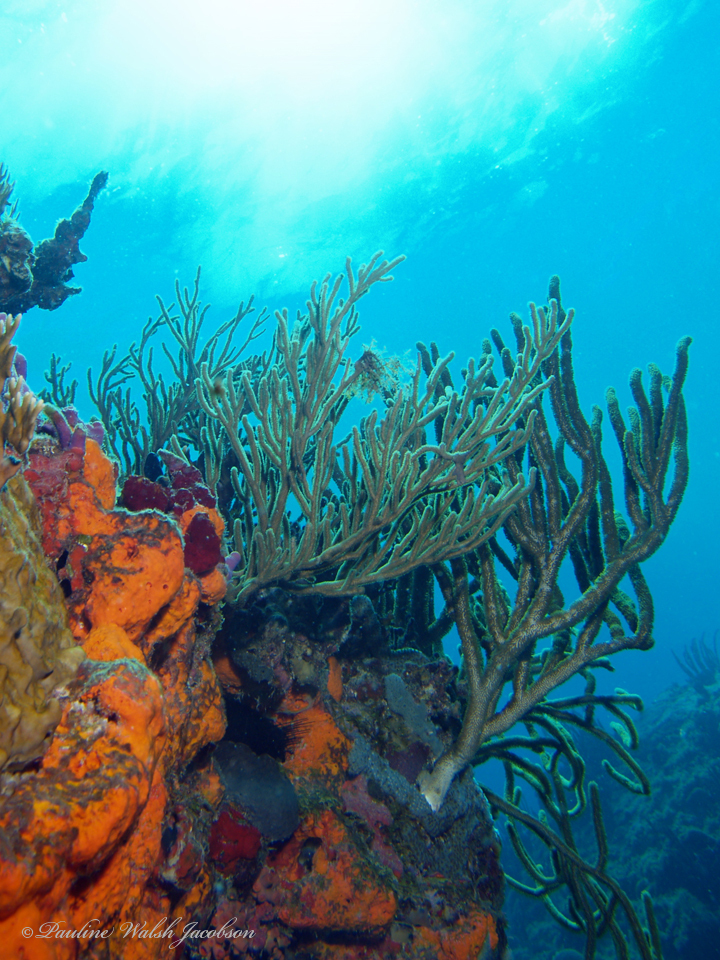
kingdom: Animalia
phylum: Porifera
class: Demospongiae
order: Agelasida
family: Agelasidae
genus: Agelas
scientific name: Agelas clathrodes
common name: Orange elephant ear sponge
